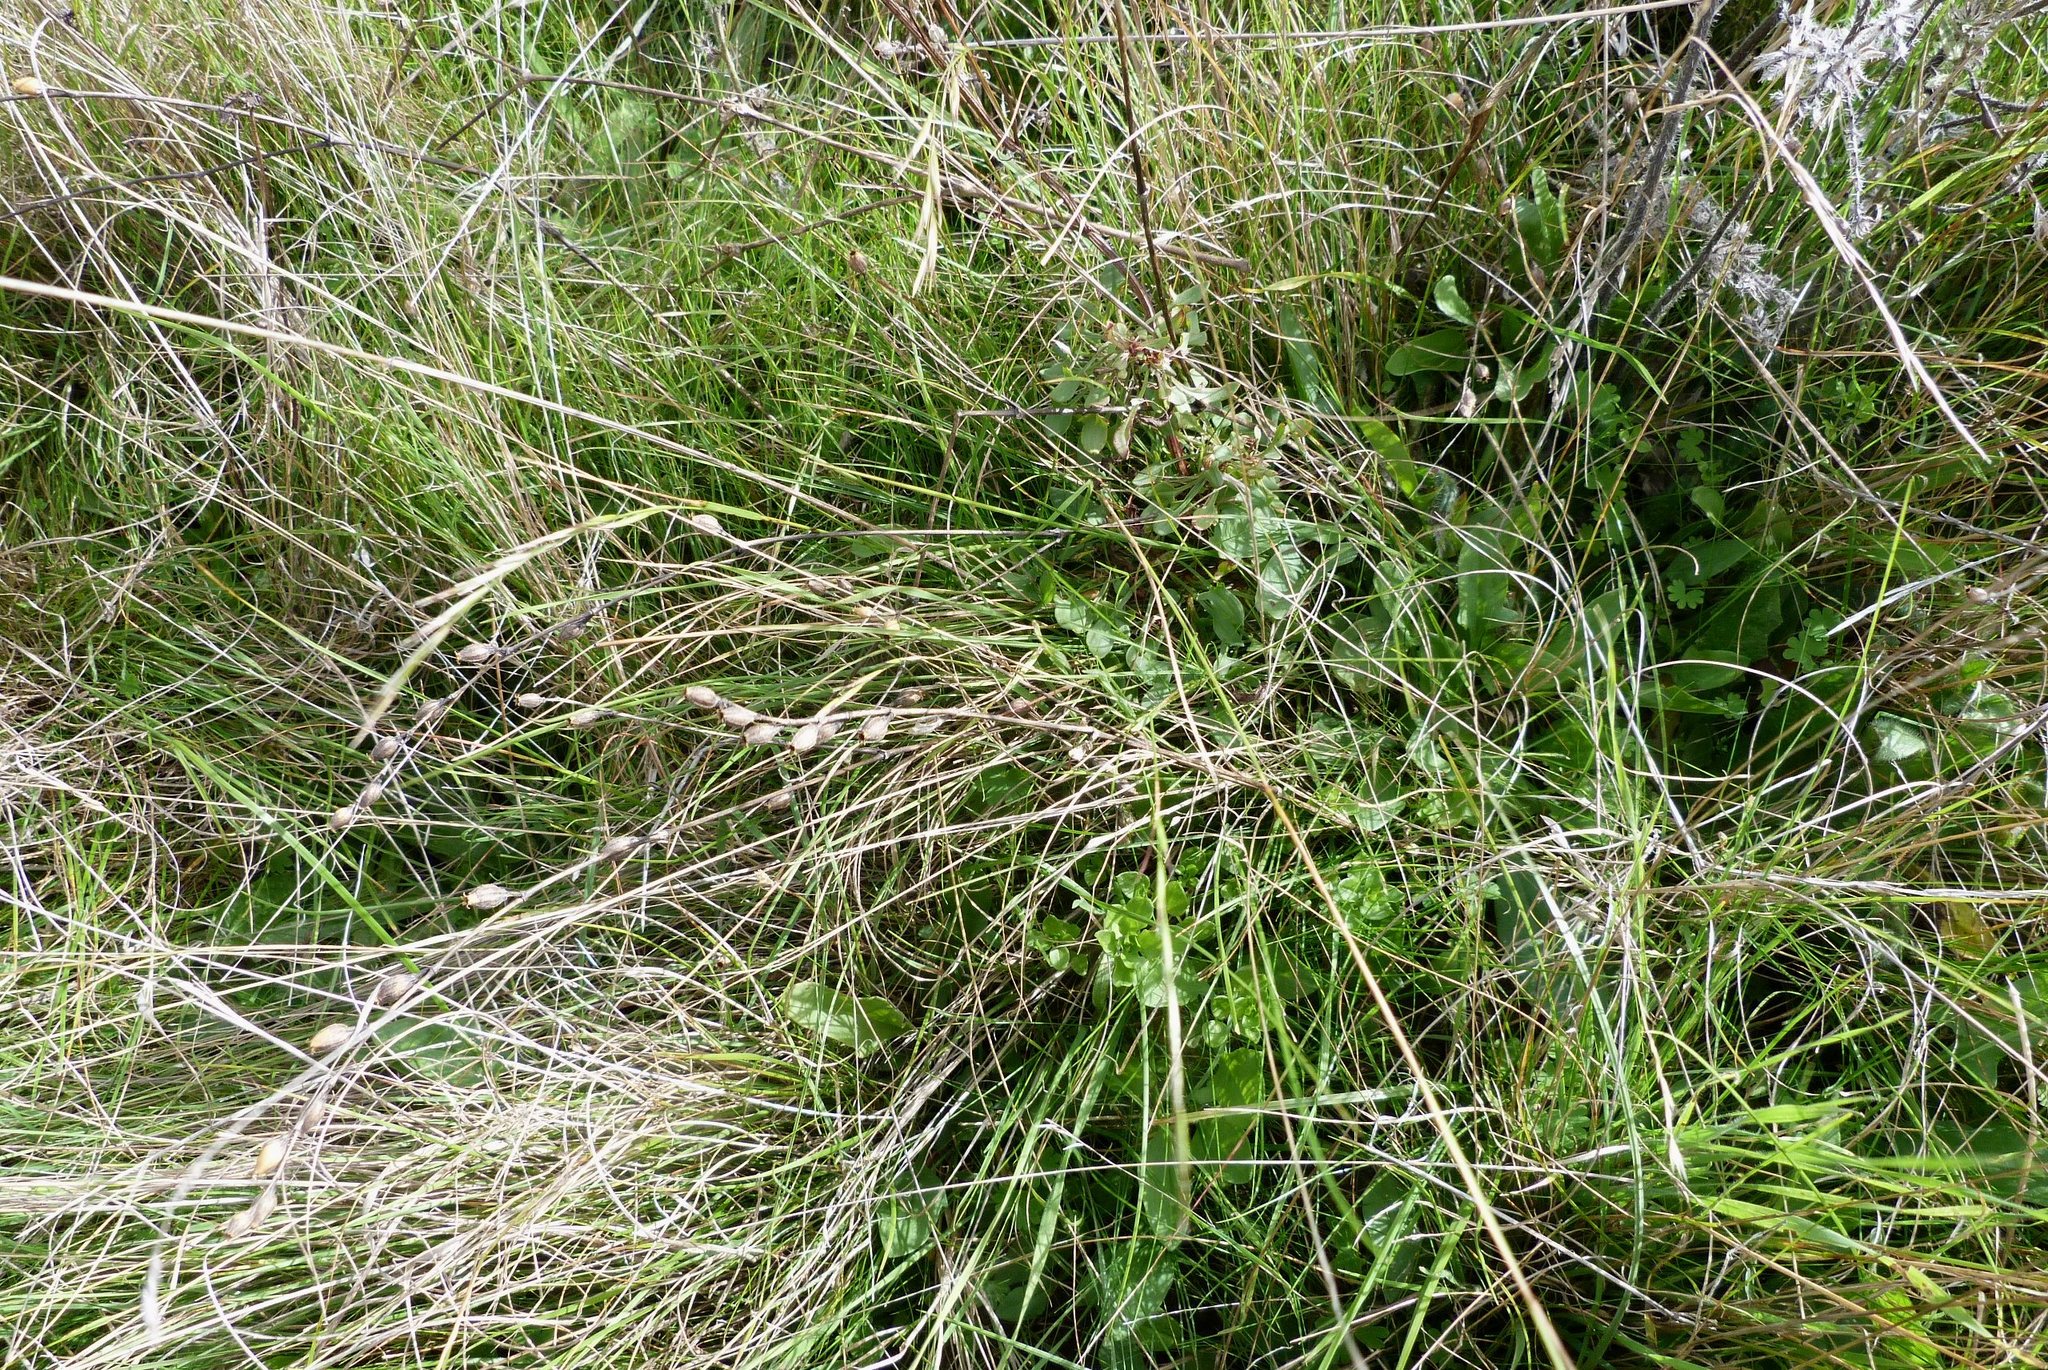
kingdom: Plantae
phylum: Tracheophyta
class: Magnoliopsida
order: Caryophyllales
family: Polygonaceae
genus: Rumex
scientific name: Rumex acetosella
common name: Common sheep sorrel
